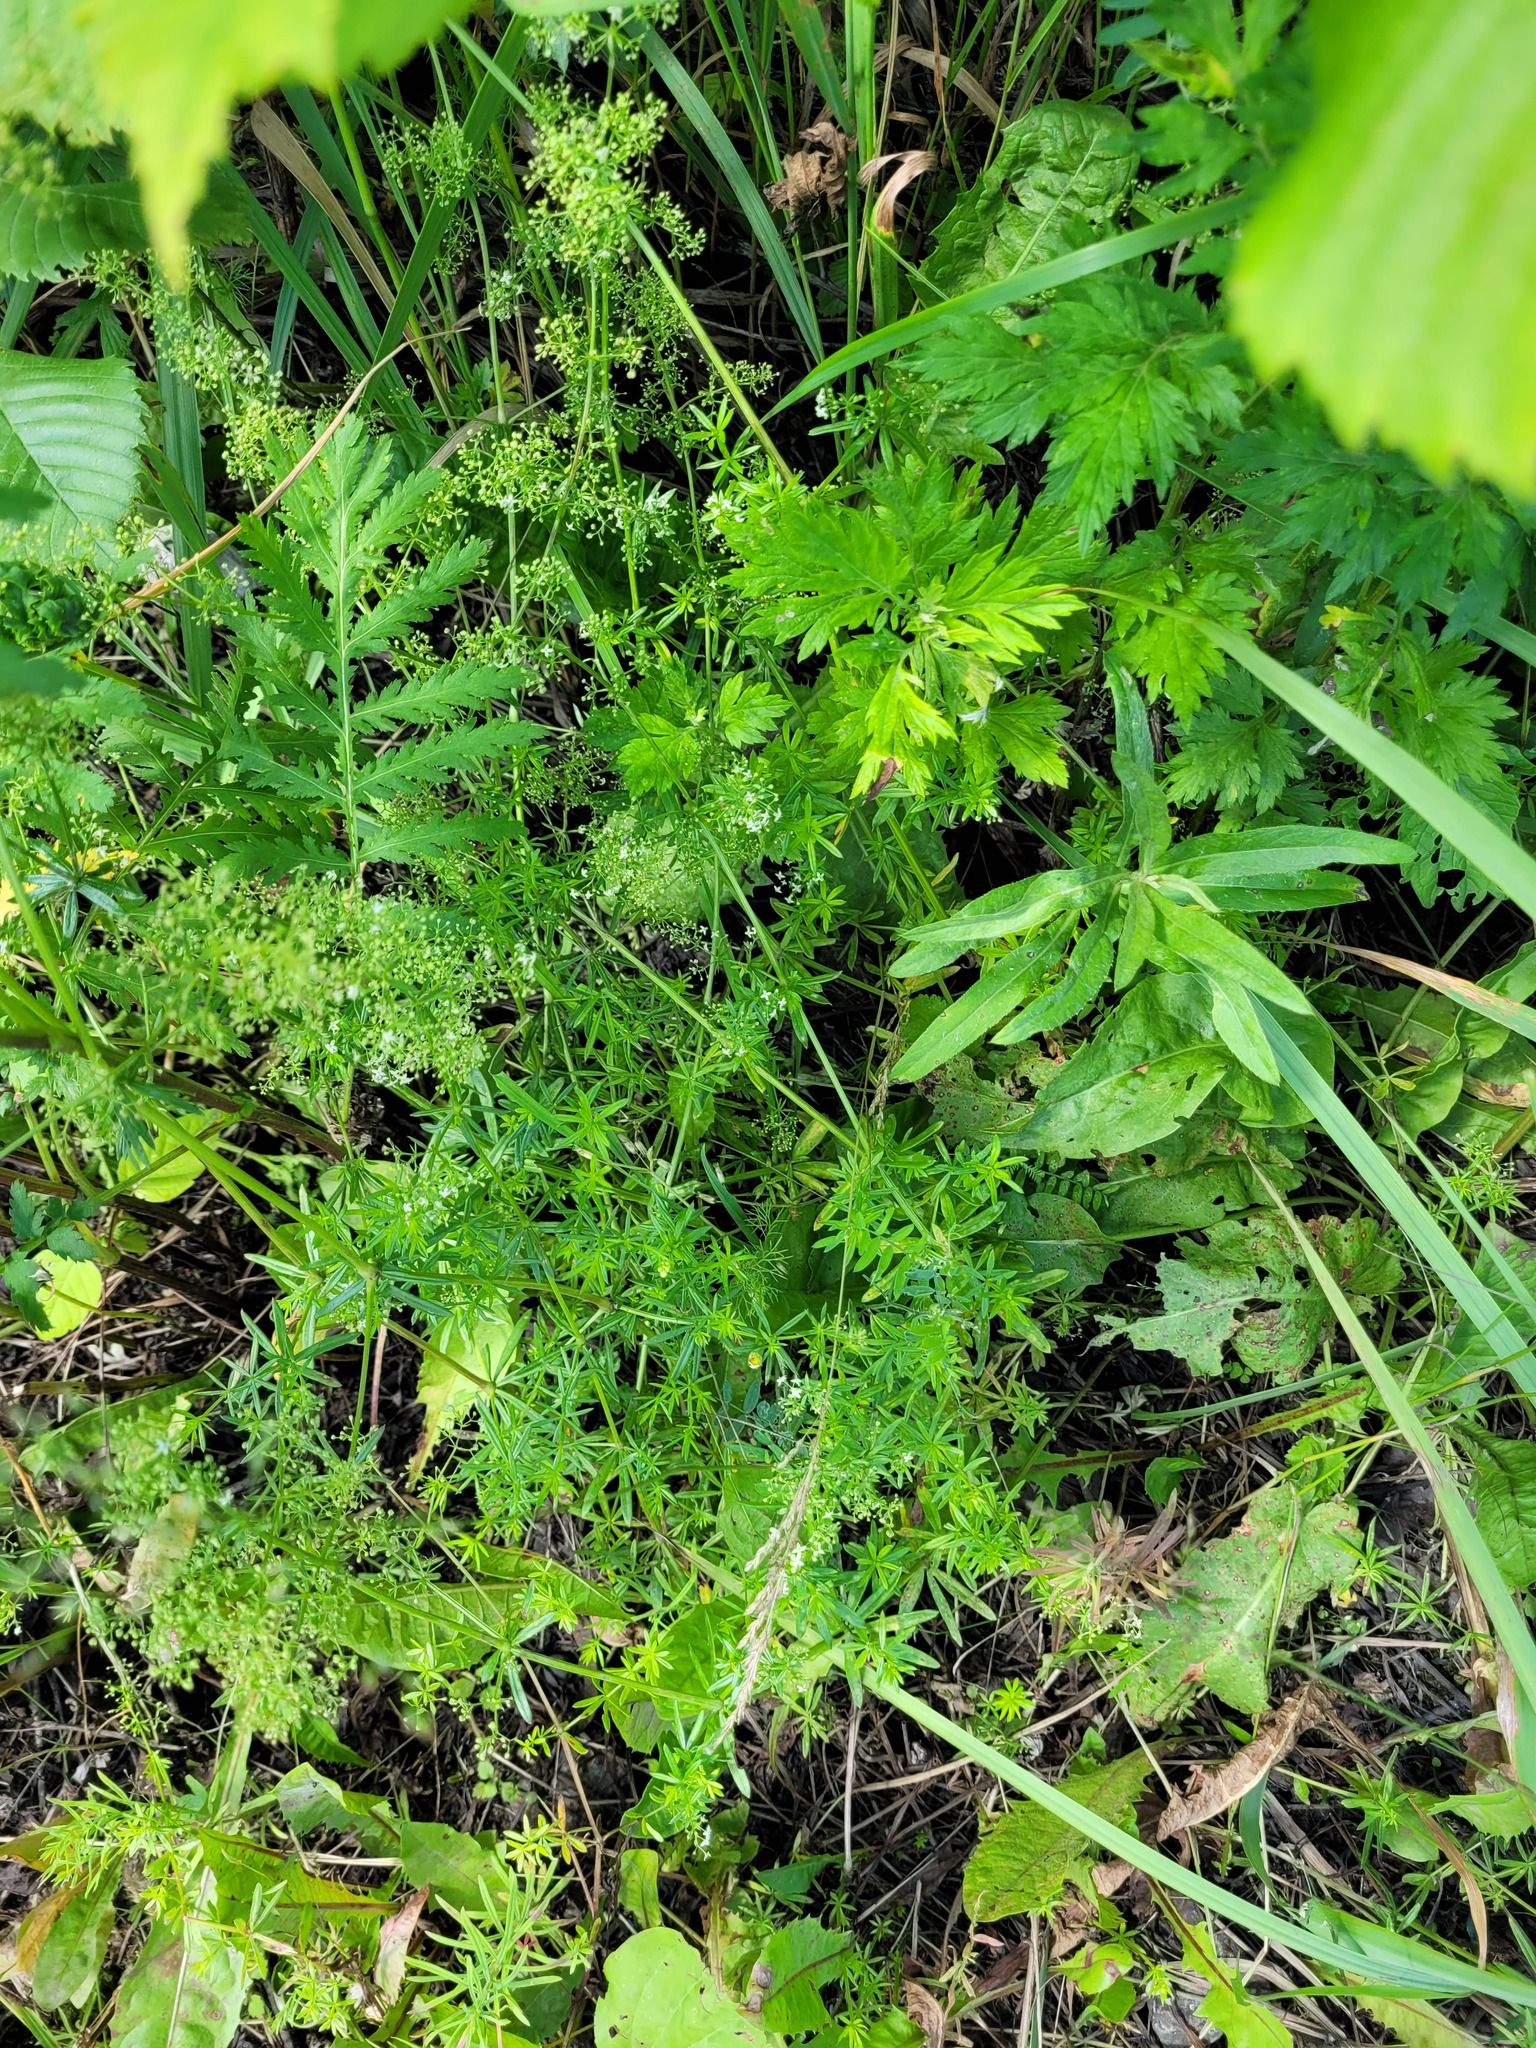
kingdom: Plantae
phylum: Tracheophyta
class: Magnoliopsida
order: Gentianales
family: Rubiaceae
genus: Galium
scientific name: Galium mollugo
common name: Hedge bedstraw
